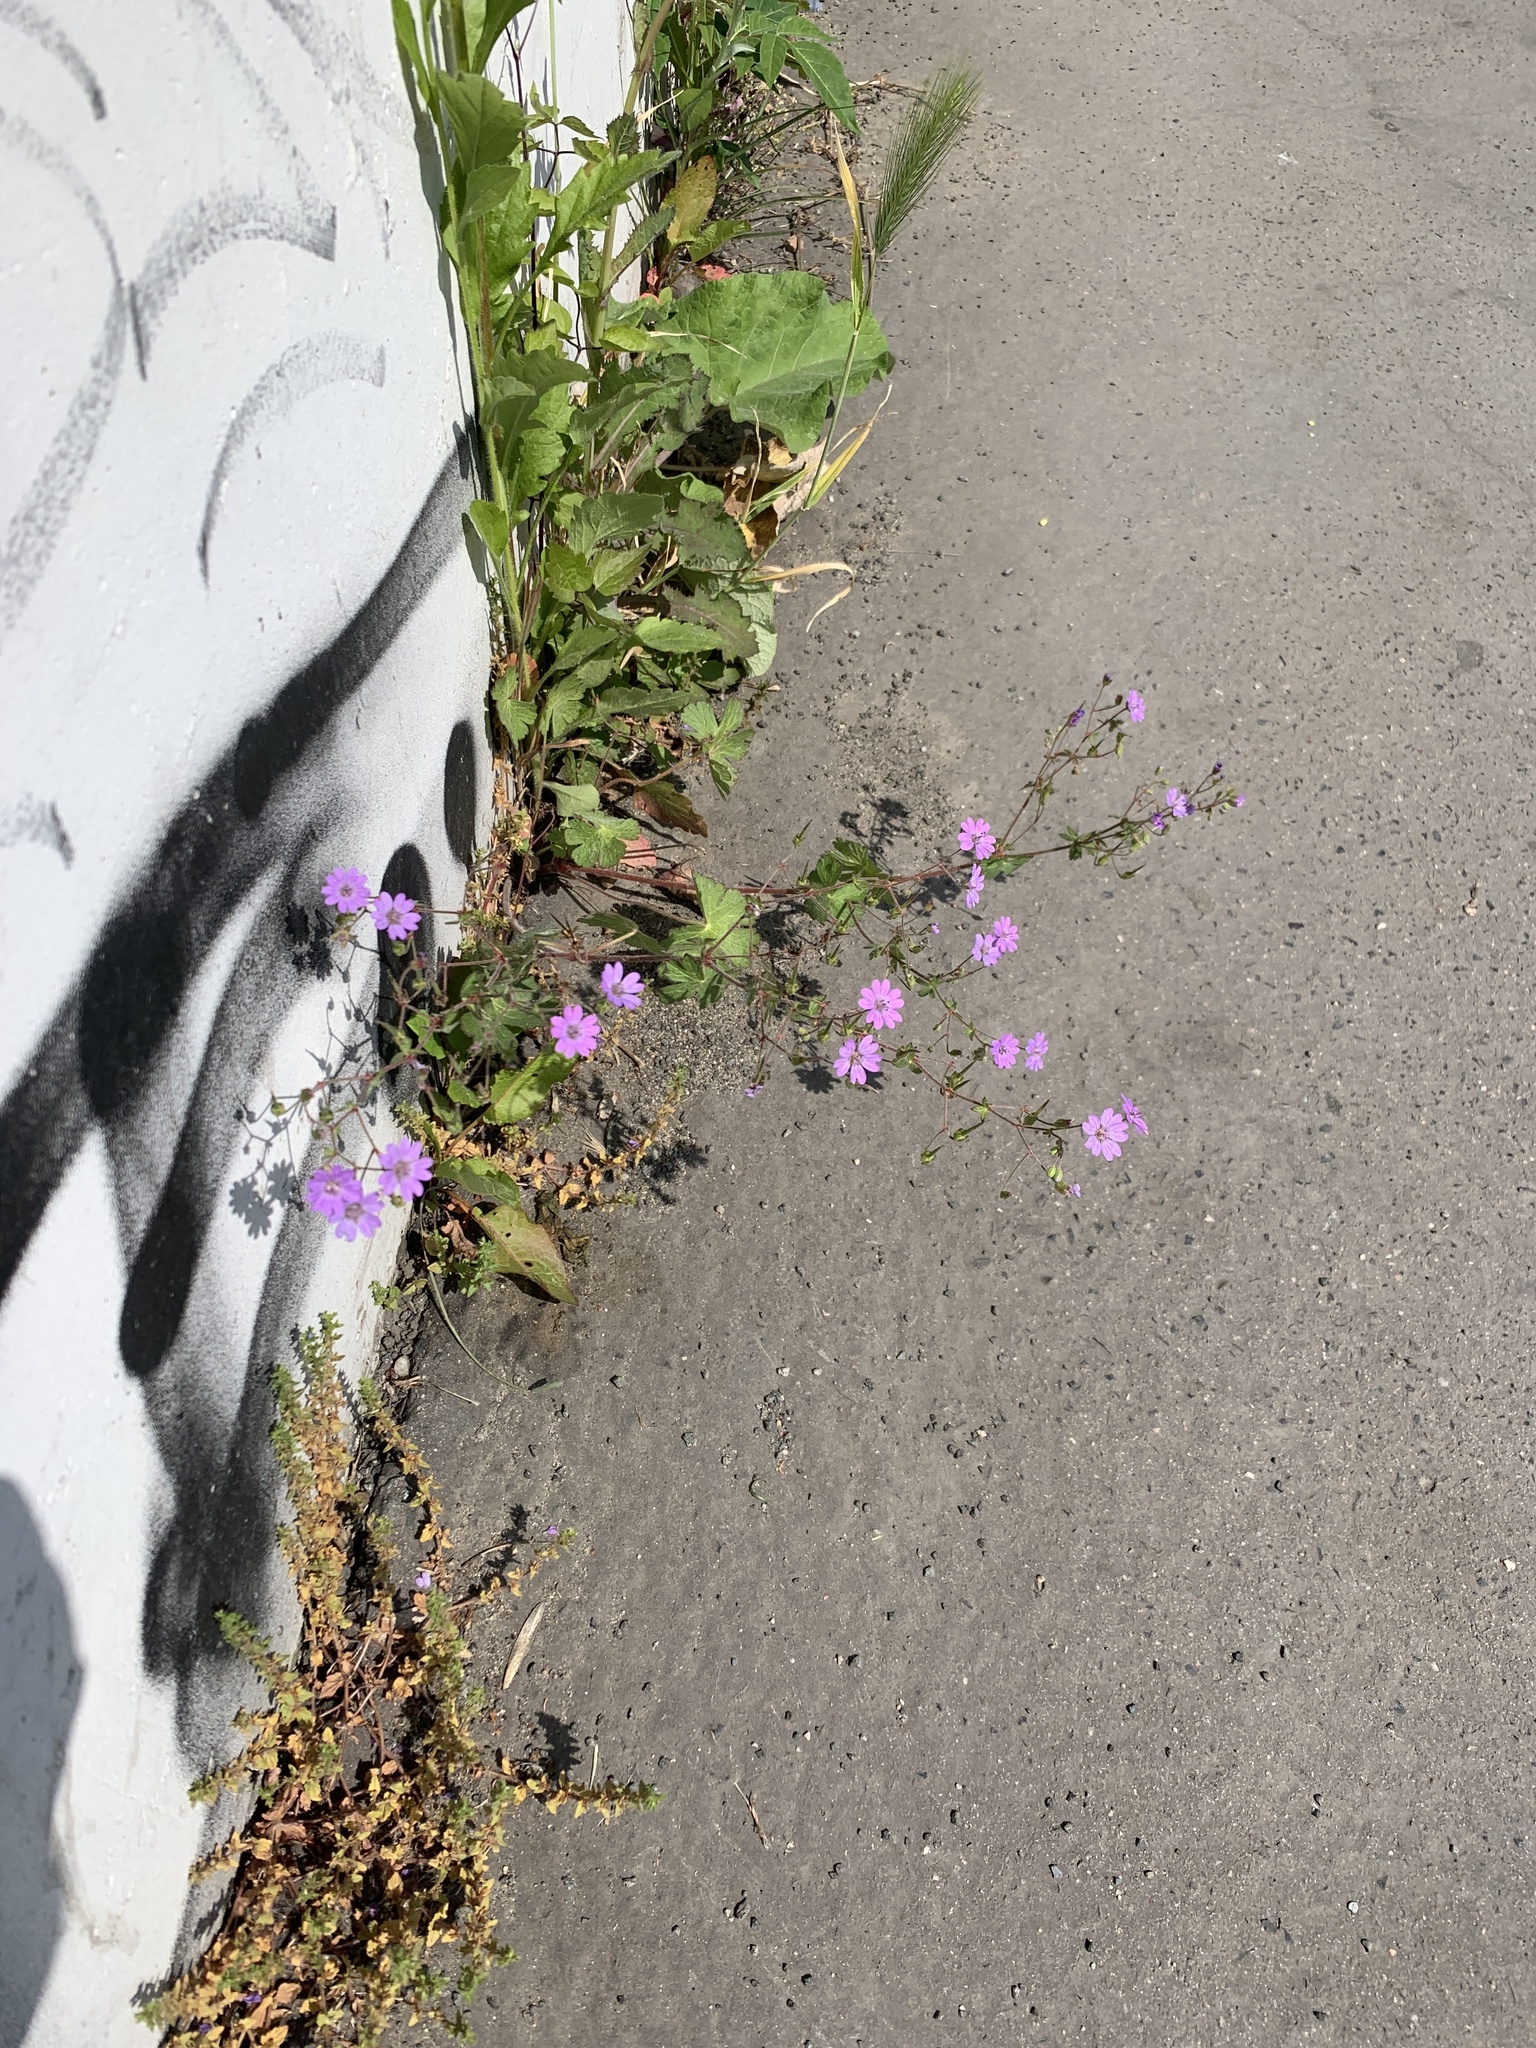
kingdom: Plantae
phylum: Tracheophyta
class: Magnoliopsida
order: Geraniales
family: Geraniaceae
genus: Geranium
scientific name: Geranium pyrenaicum
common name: Hedgerow crane's-bill
